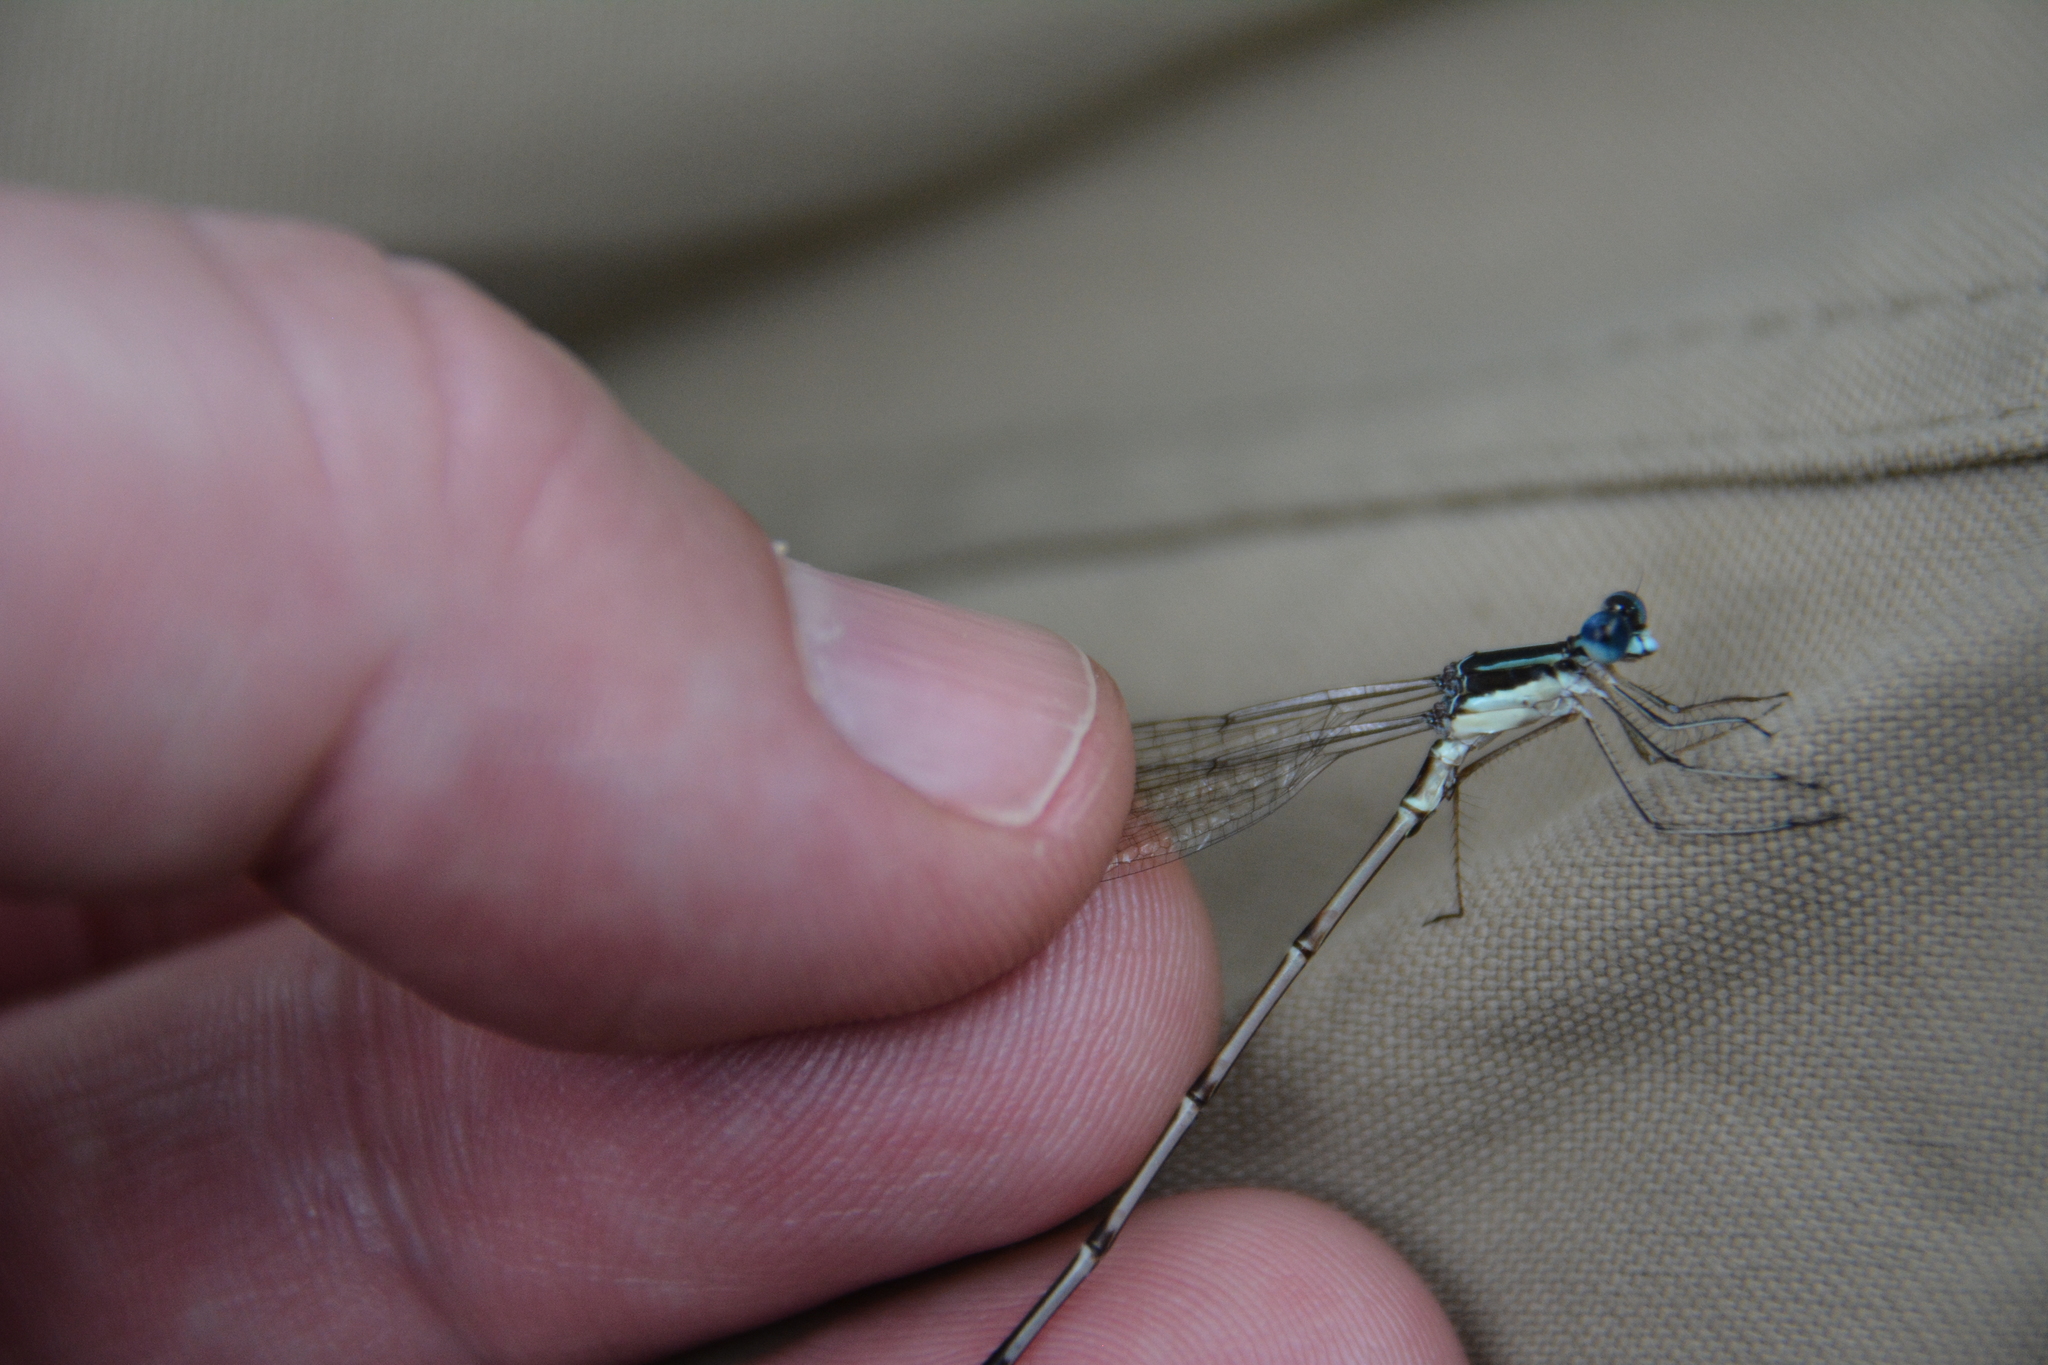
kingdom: Animalia
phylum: Arthropoda
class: Insecta
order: Odonata
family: Lestidae
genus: Lestes
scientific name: Lestes disjunctus
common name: Northern spreadwing
